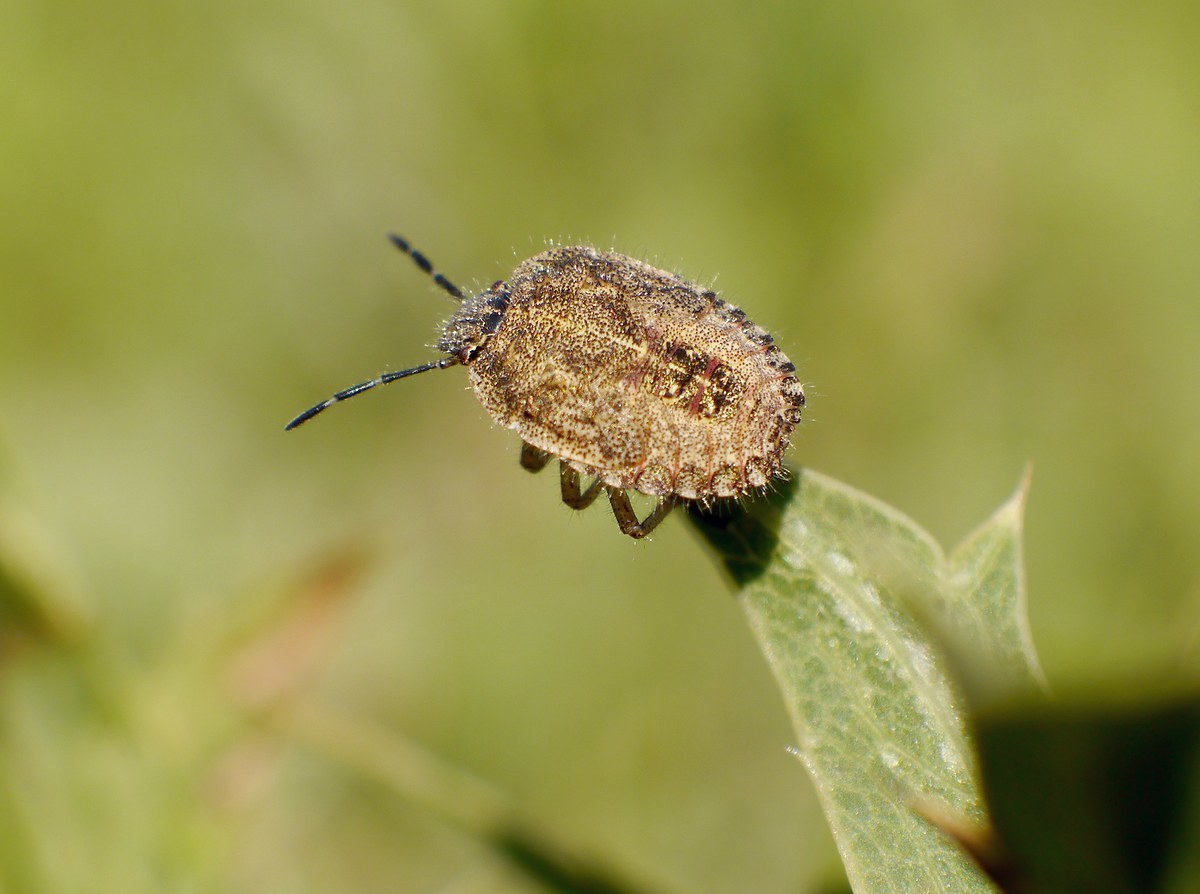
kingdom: Animalia
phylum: Arthropoda
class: Insecta
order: Hemiptera
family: Pentatomidae
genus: Dolycoris
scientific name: Dolycoris baccarum
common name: Sloe bug
